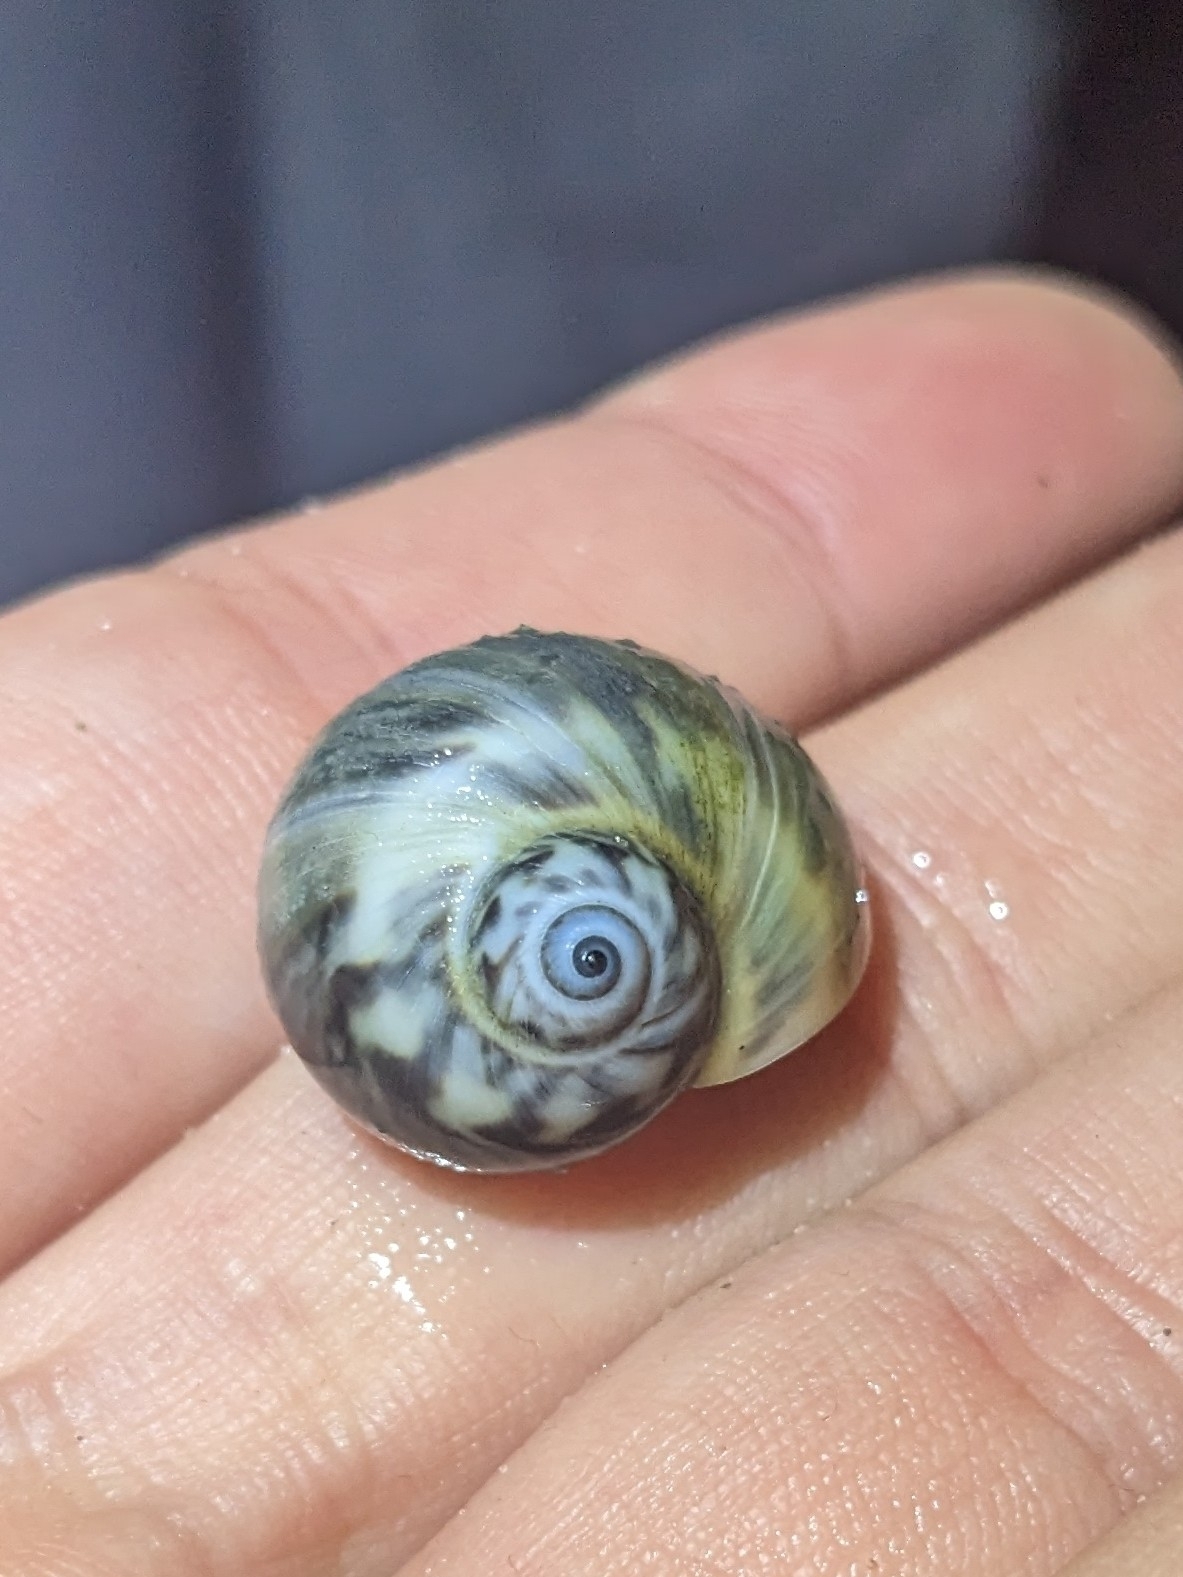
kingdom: Animalia
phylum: Mollusca
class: Gastropoda
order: Littorinimorpha
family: Naticidae
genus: Notocochlis
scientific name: Notocochlis chemnitzii
